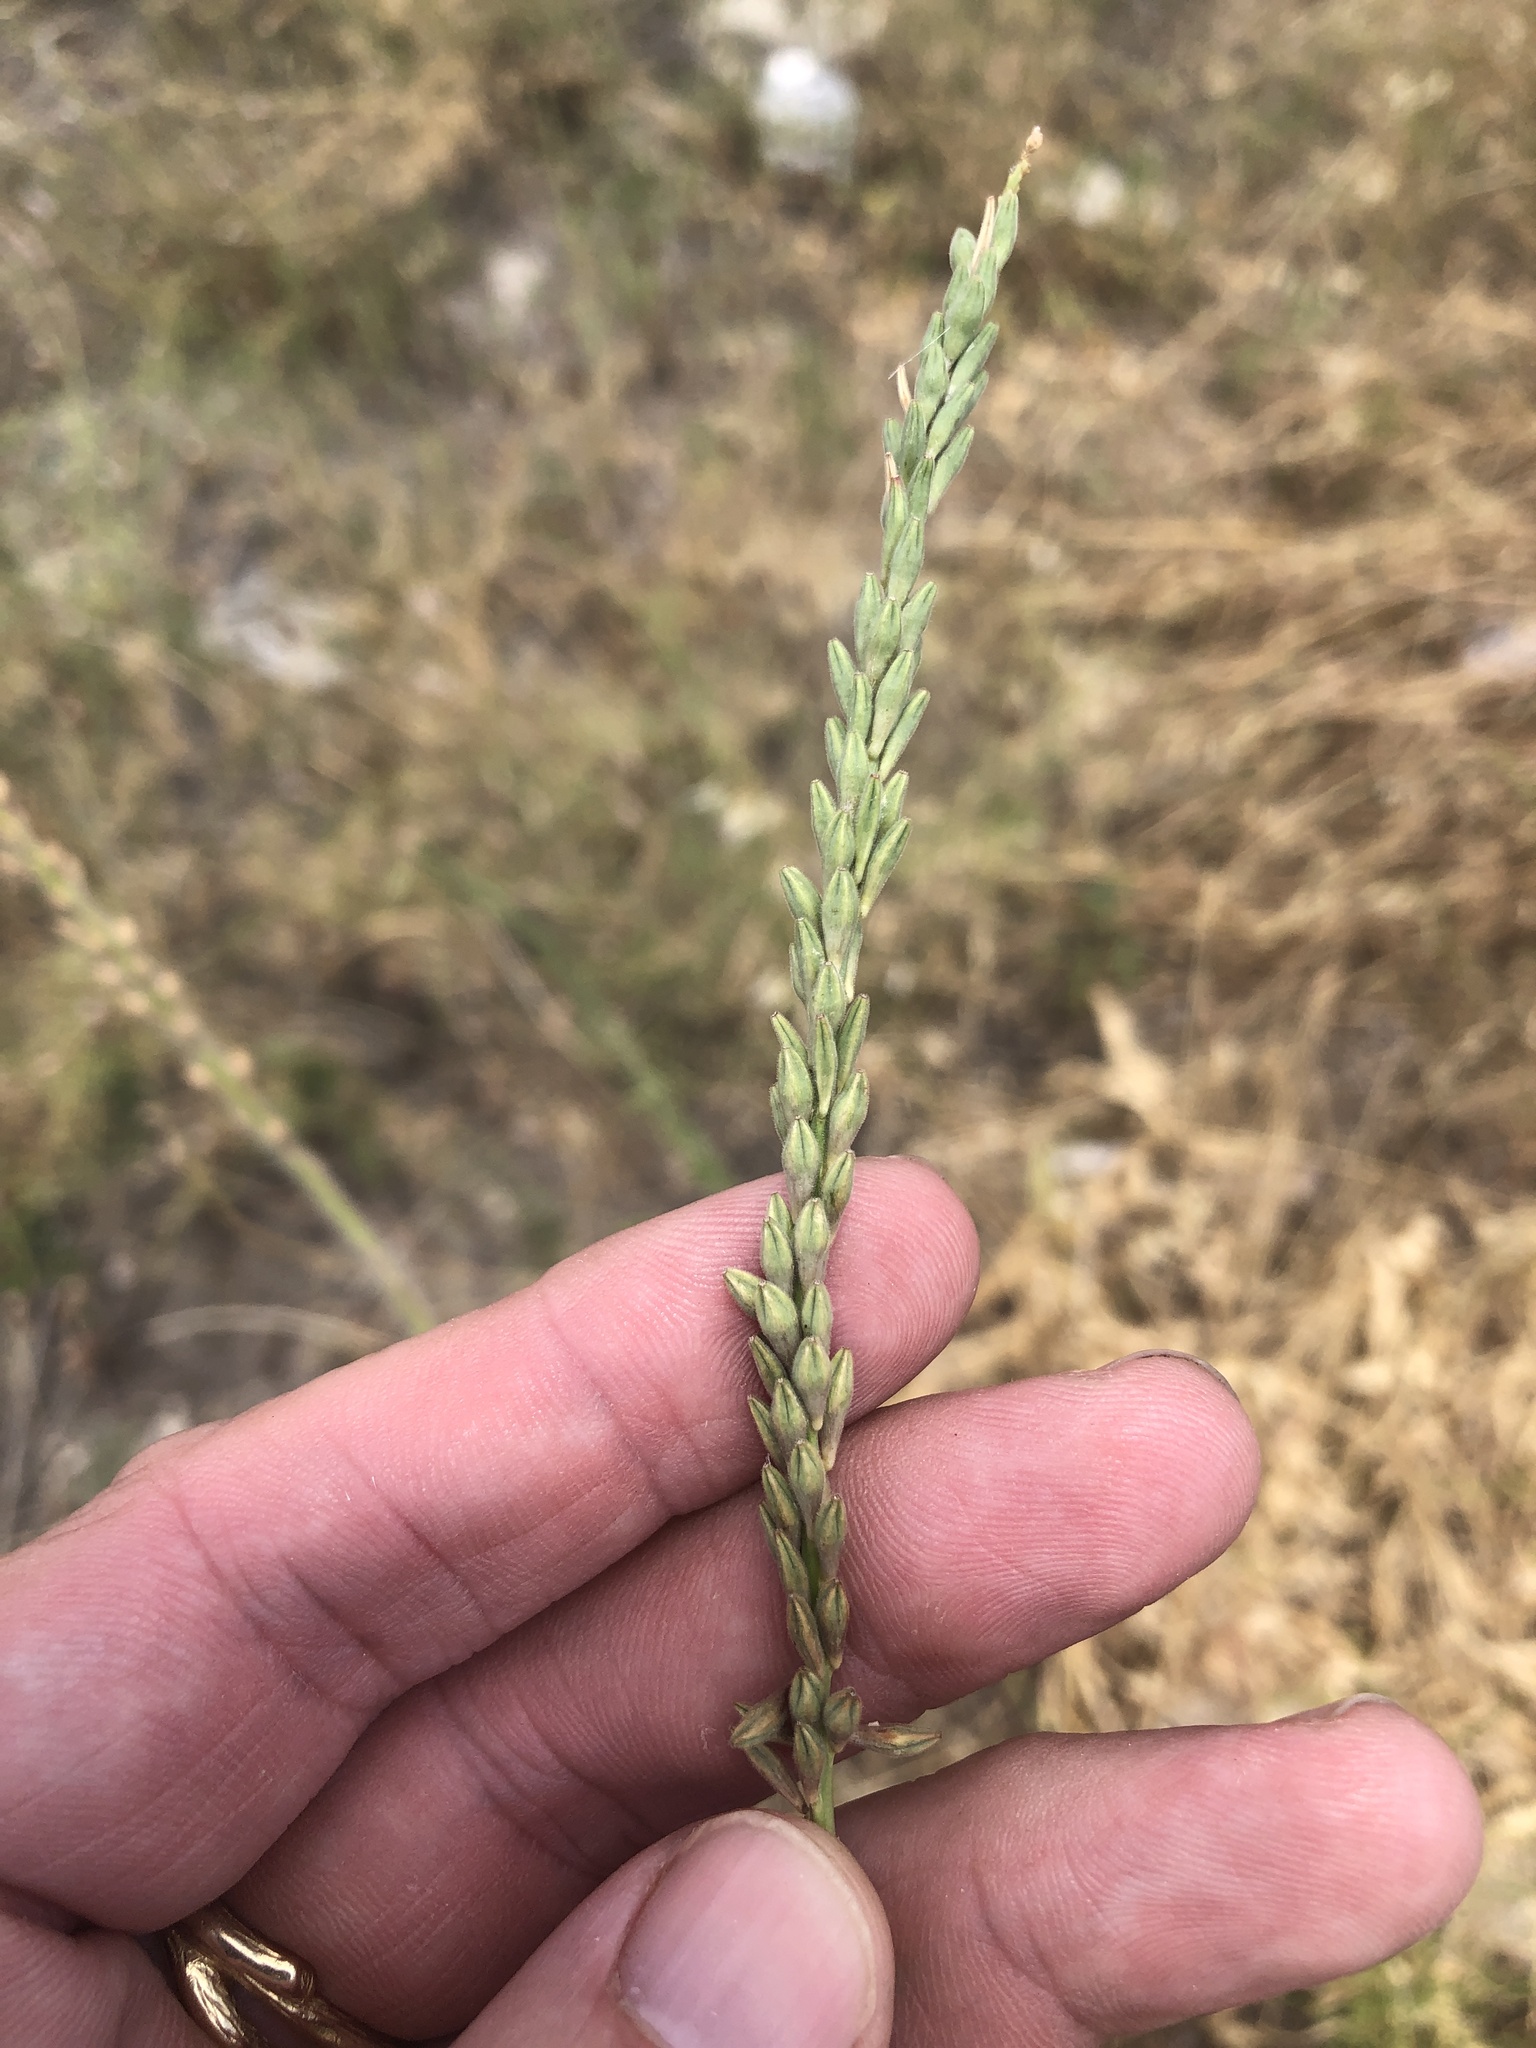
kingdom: Plantae
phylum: Tracheophyta
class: Magnoliopsida
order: Myrtales
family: Onagraceae
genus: Oenothera
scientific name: Oenothera curtiflora
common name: Velvetweed
